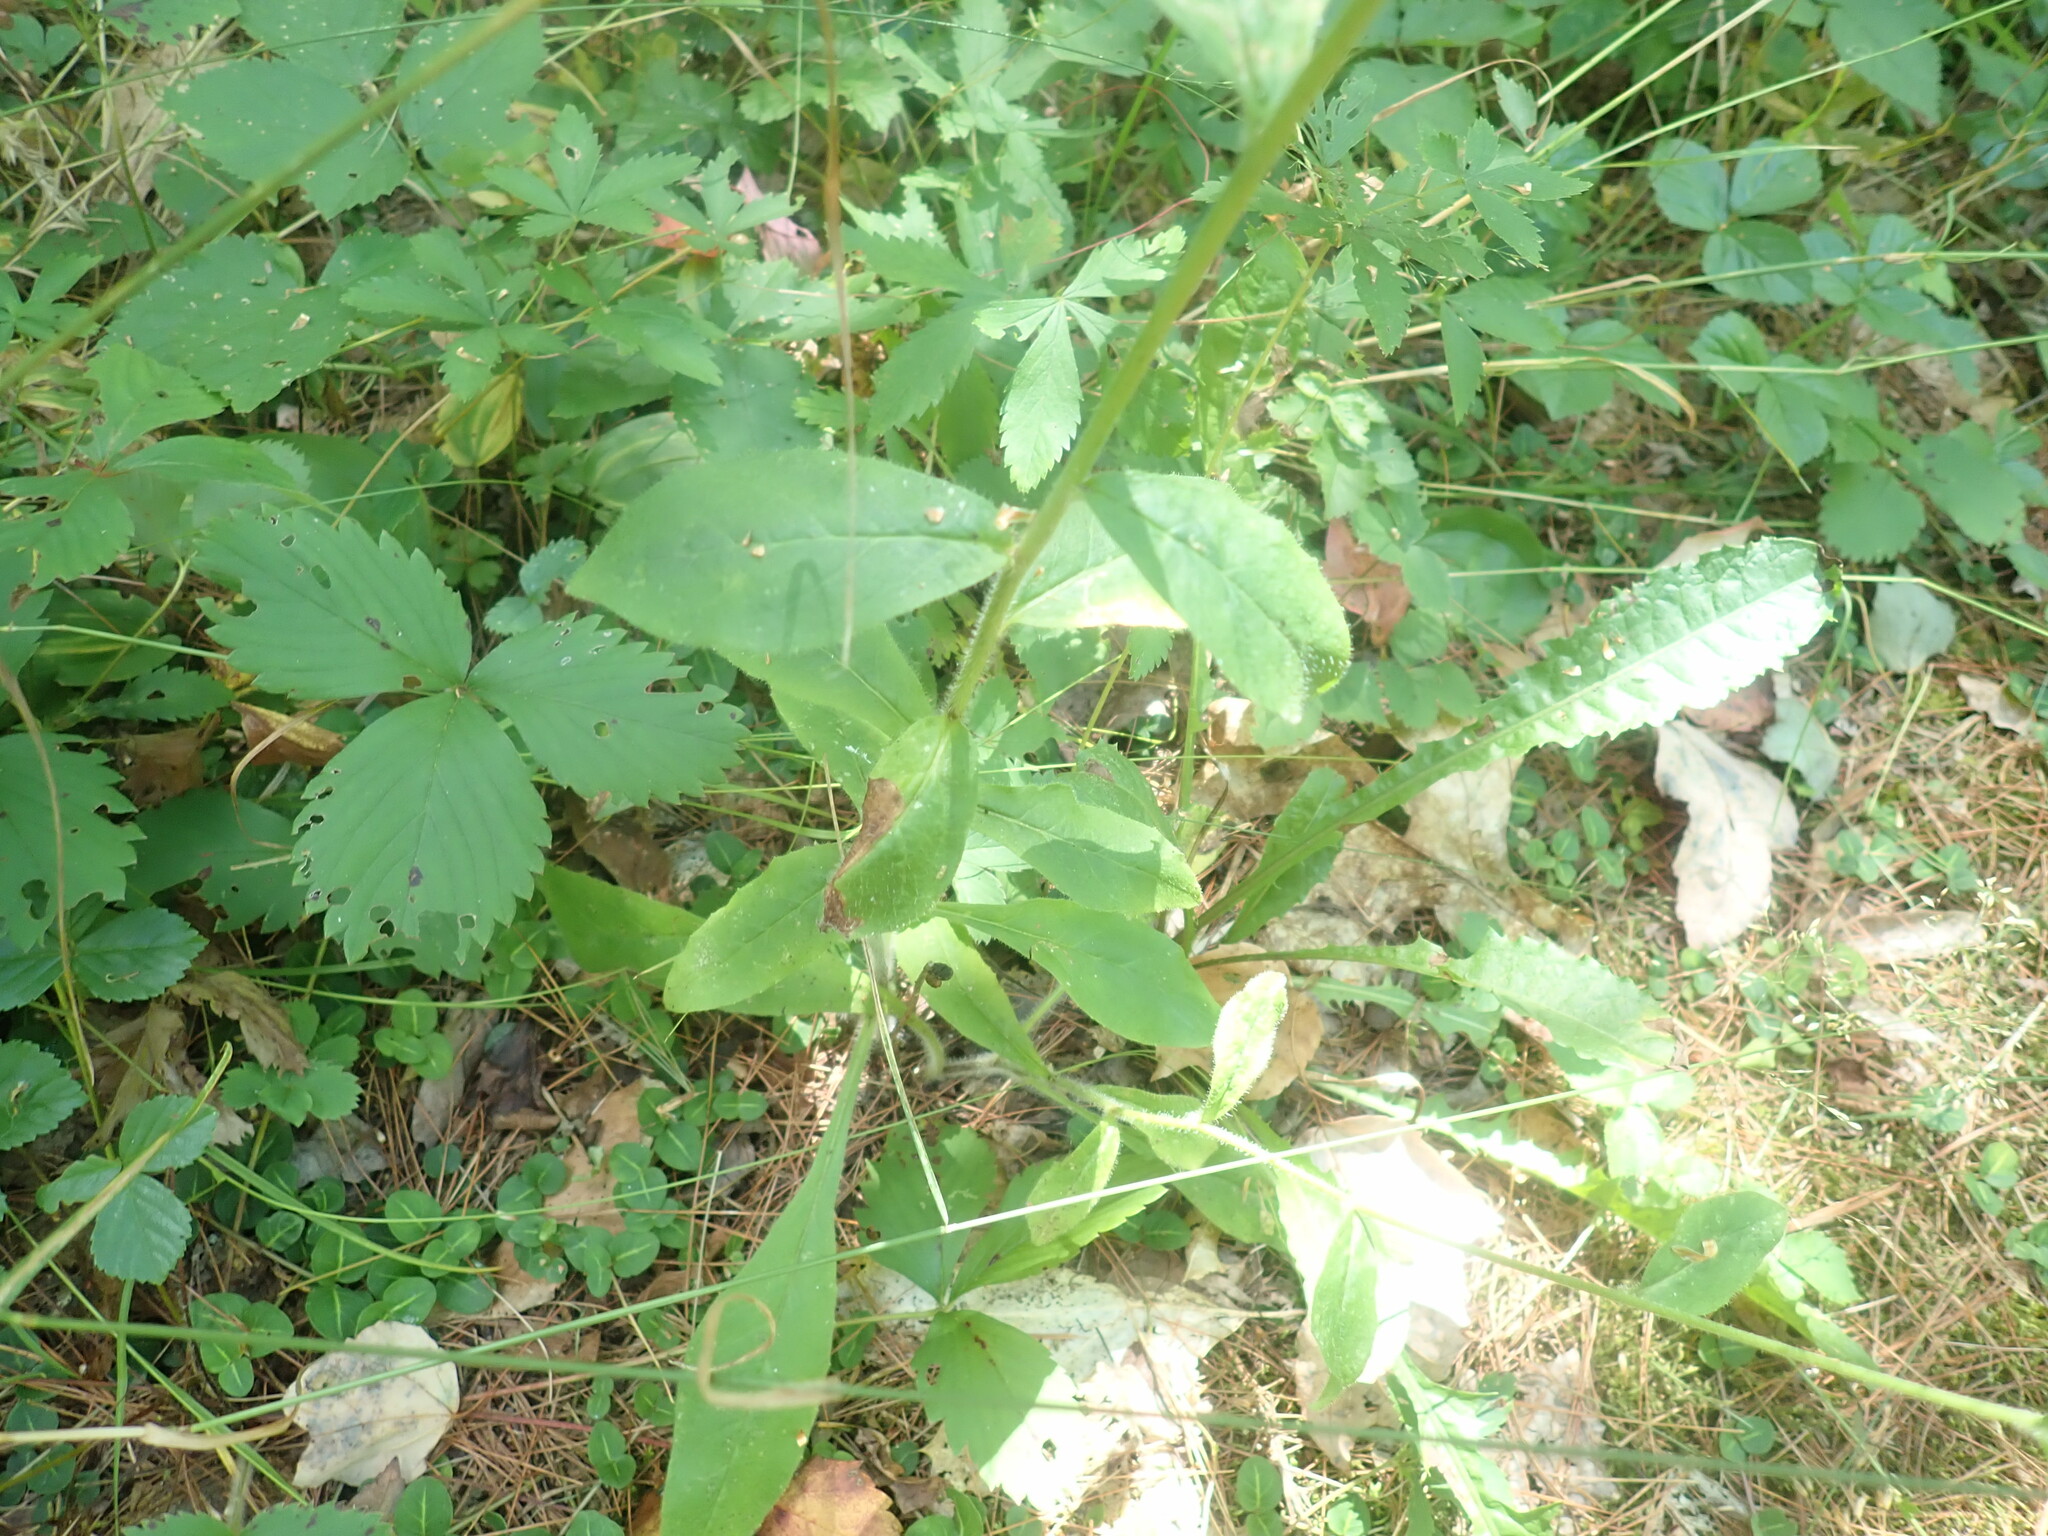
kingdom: Plantae
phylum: Tracheophyta
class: Magnoliopsida
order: Asterales
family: Asteraceae
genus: Hieracium
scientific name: Hieracium scabrum
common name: Rough hawkweed
